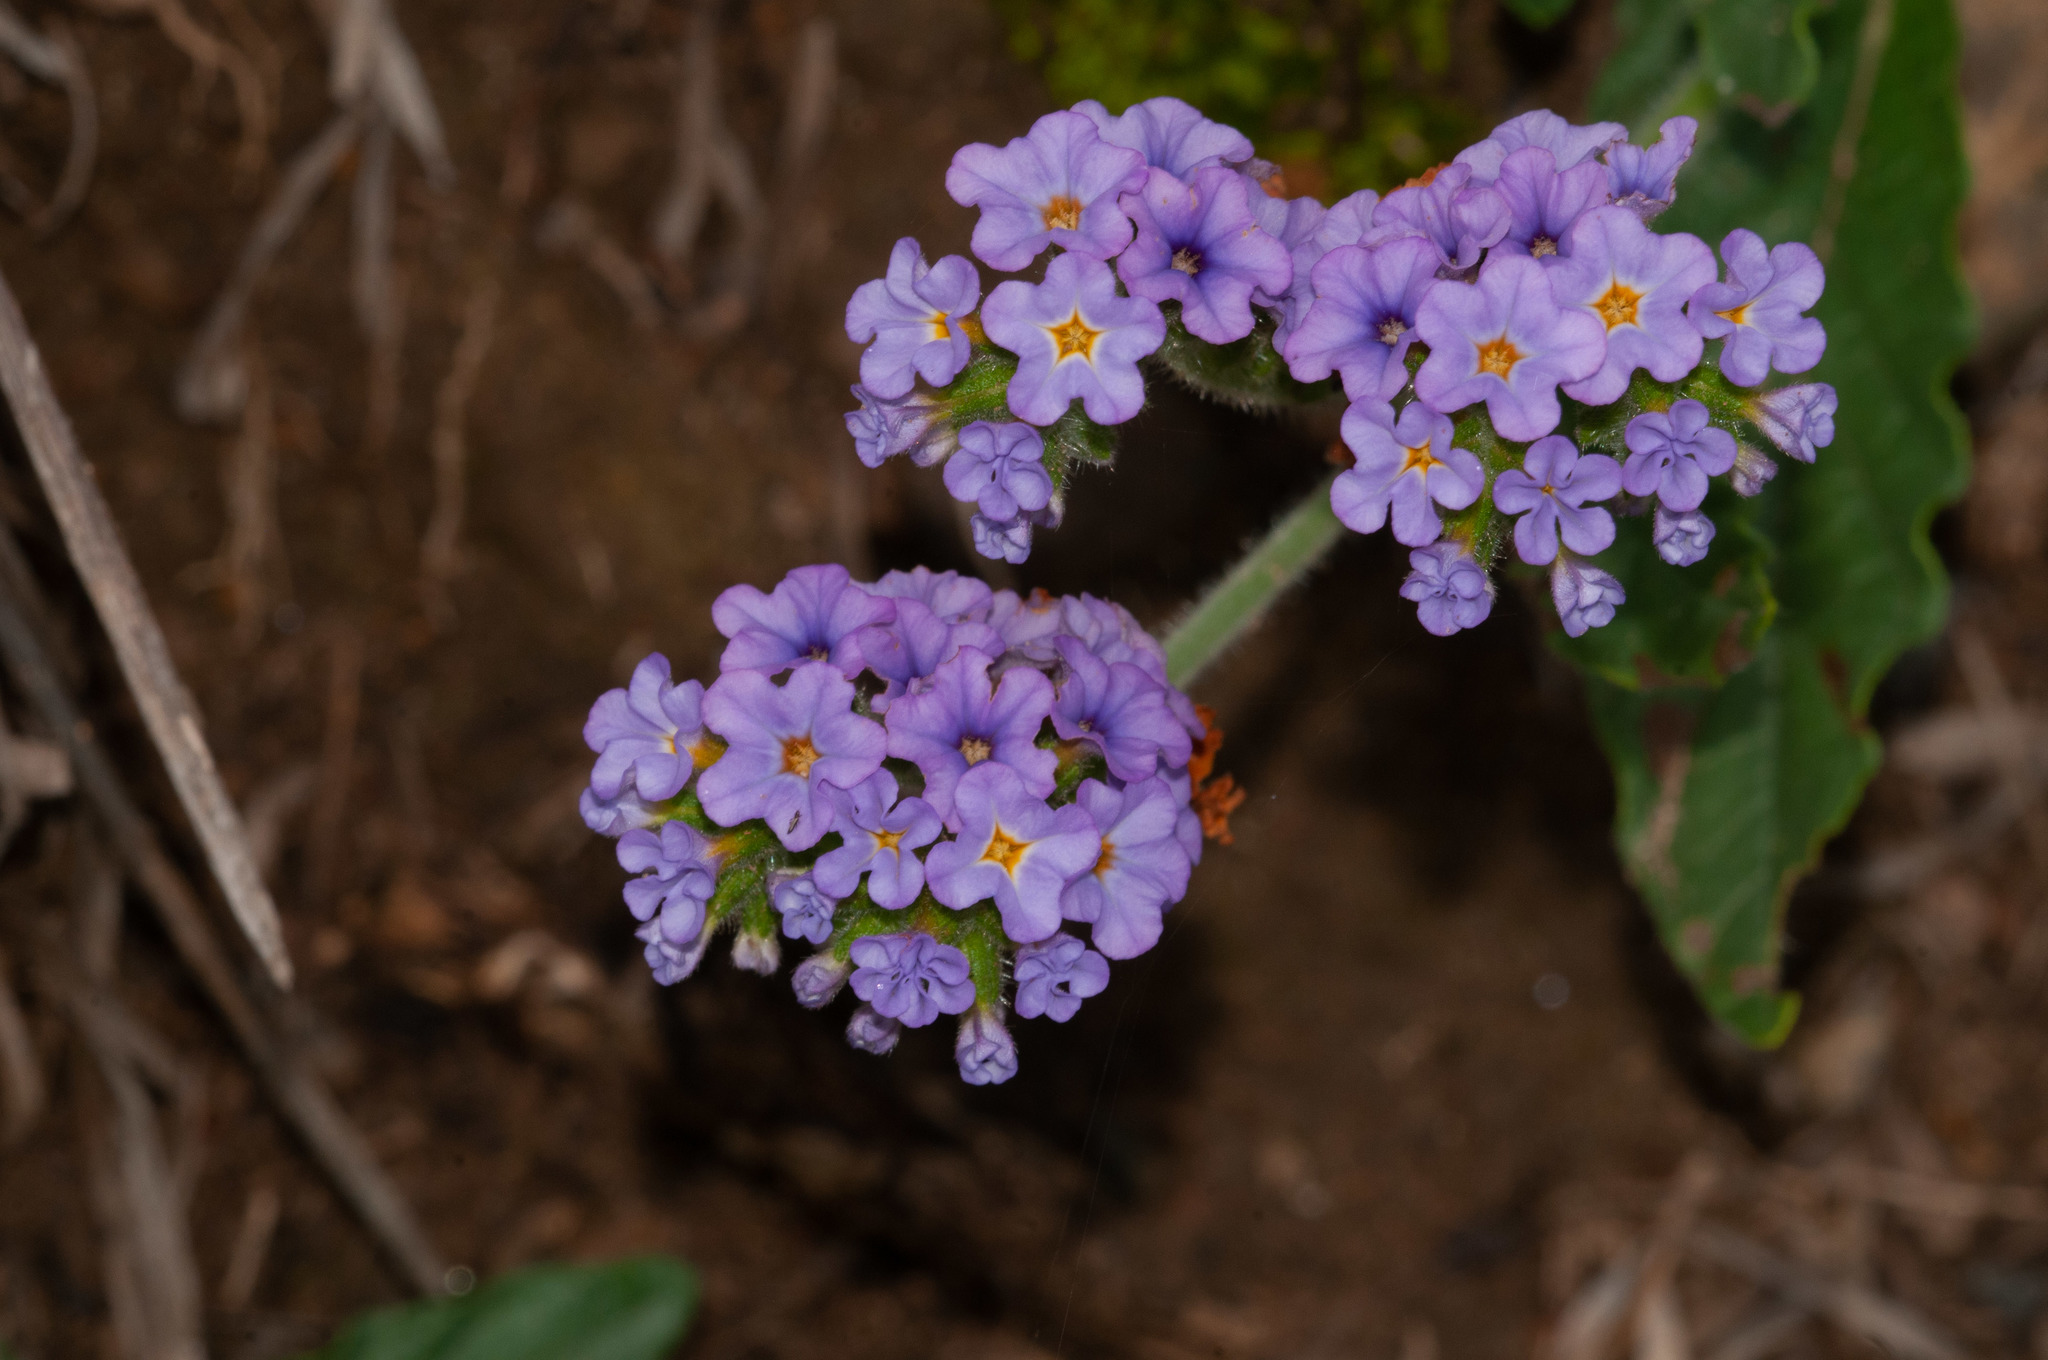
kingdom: Plantae
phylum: Tracheophyta
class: Magnoliopsida
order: Boraginales
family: Heliotropiaceae
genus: Heliotropium
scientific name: Heliotropium amplexicaule
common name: Clasping heliotrope
